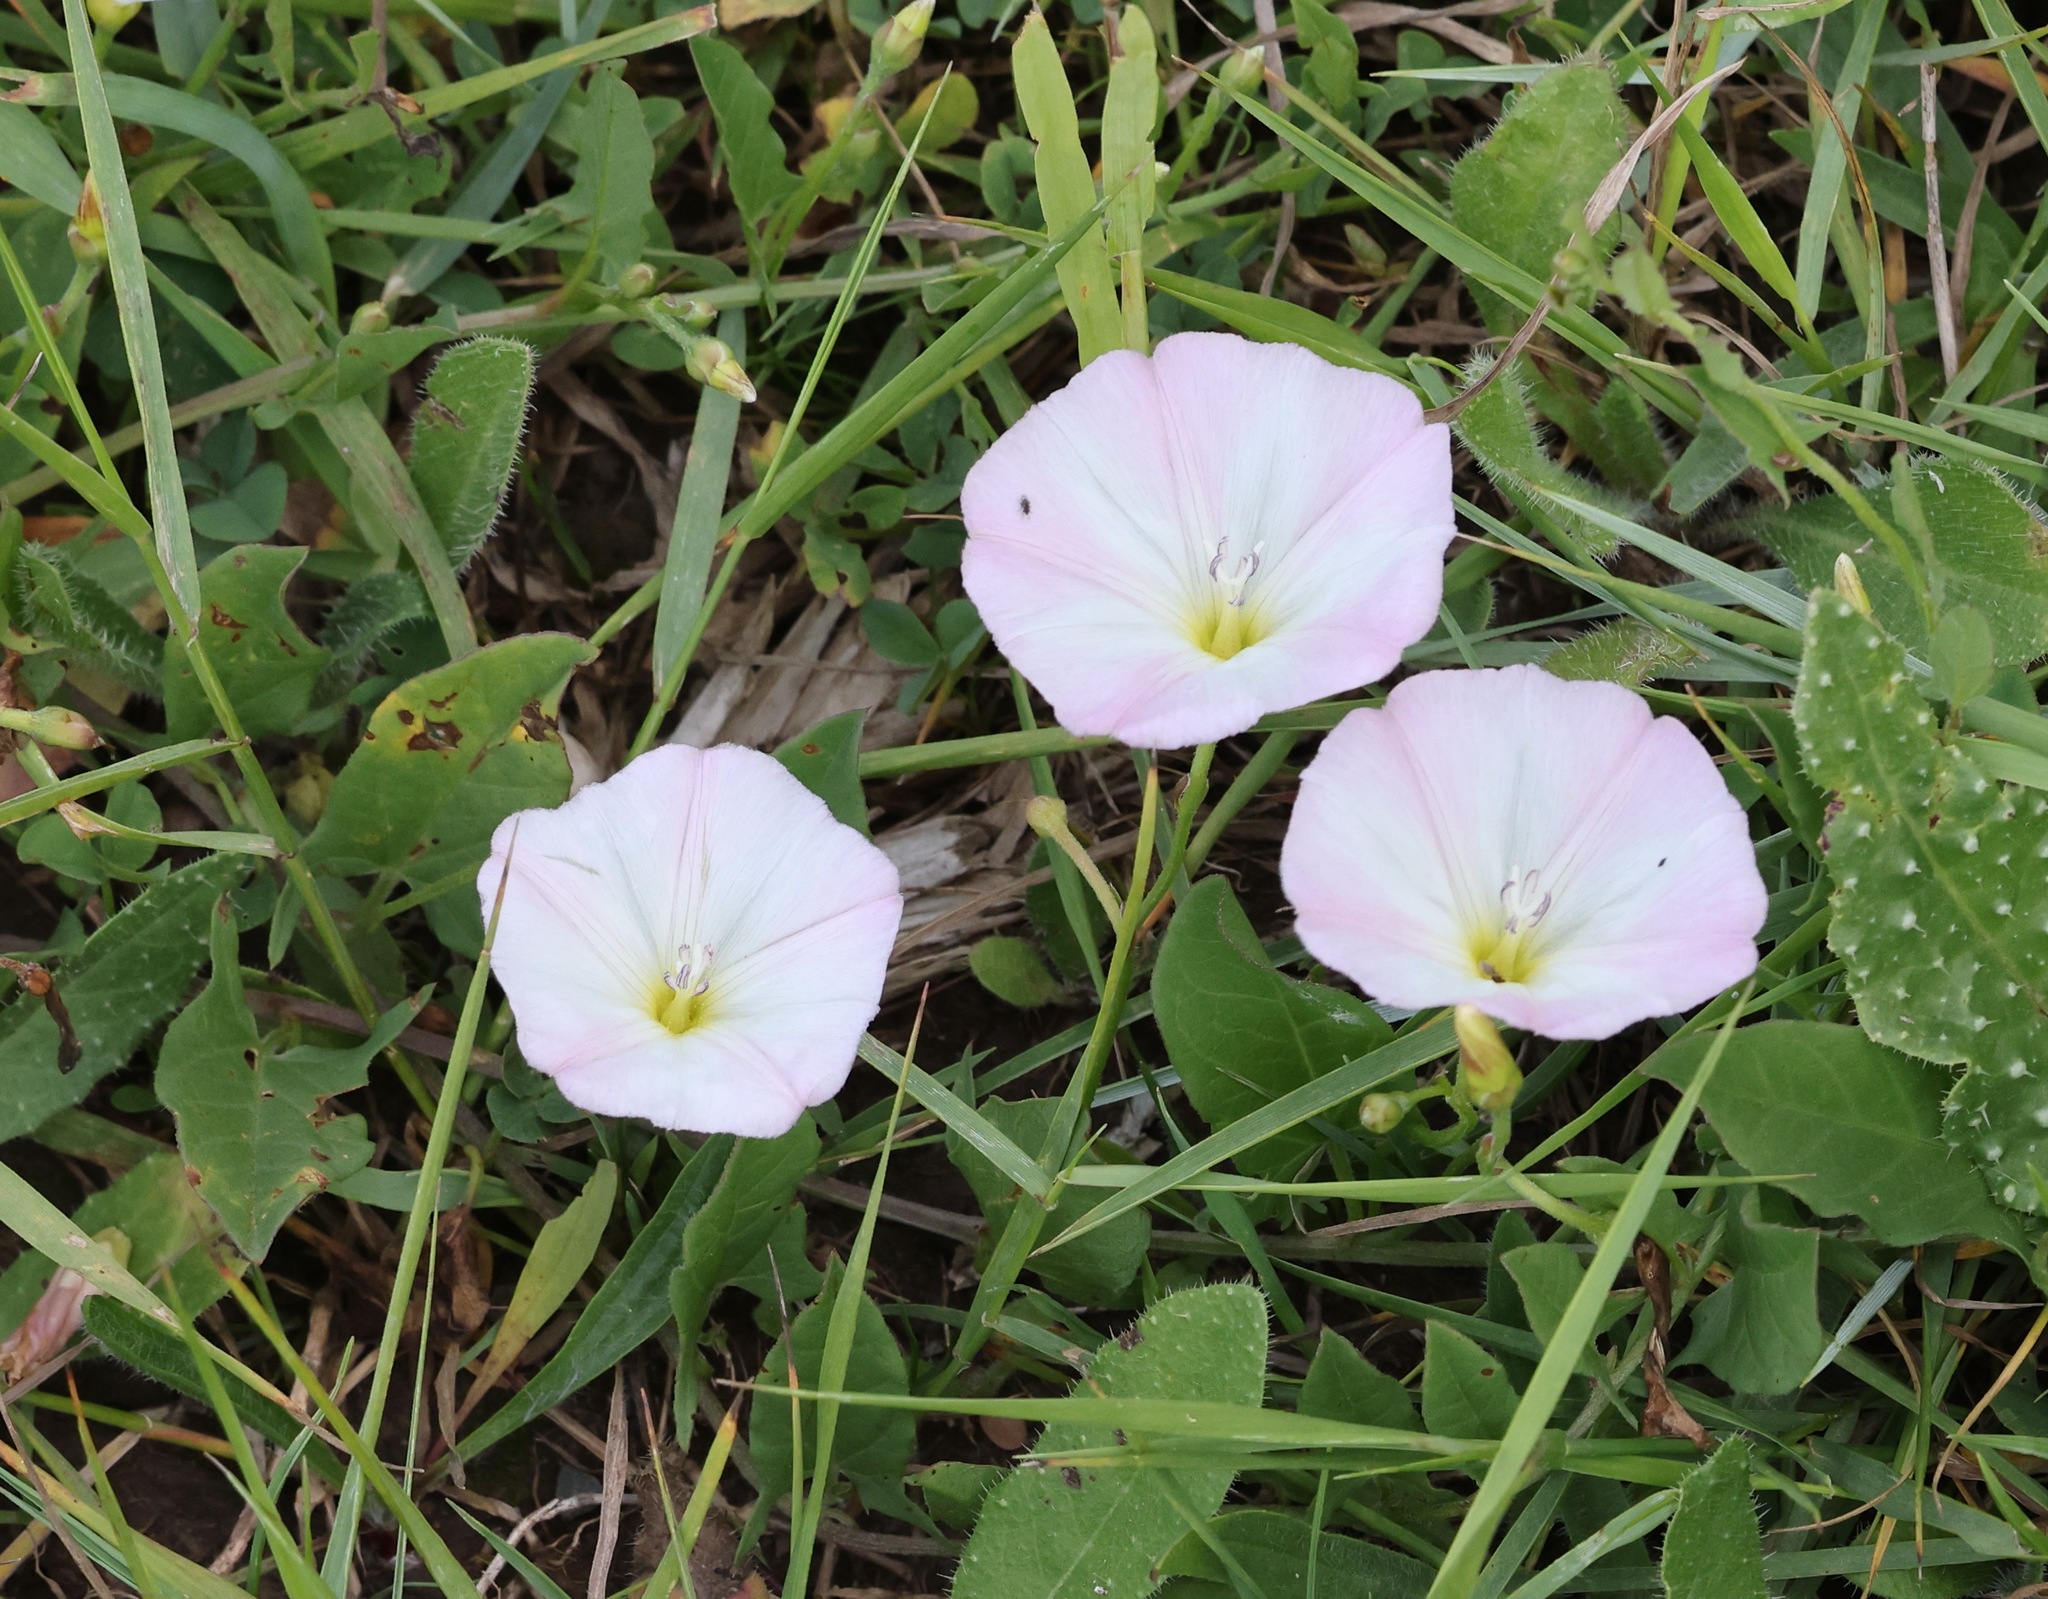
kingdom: Plantae
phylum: Tracheophyta
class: Magnoliopsida
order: Solanales
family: Convolvulaceae
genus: Convolvulus
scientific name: Convolvulus arvensis
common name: Field bindweed
